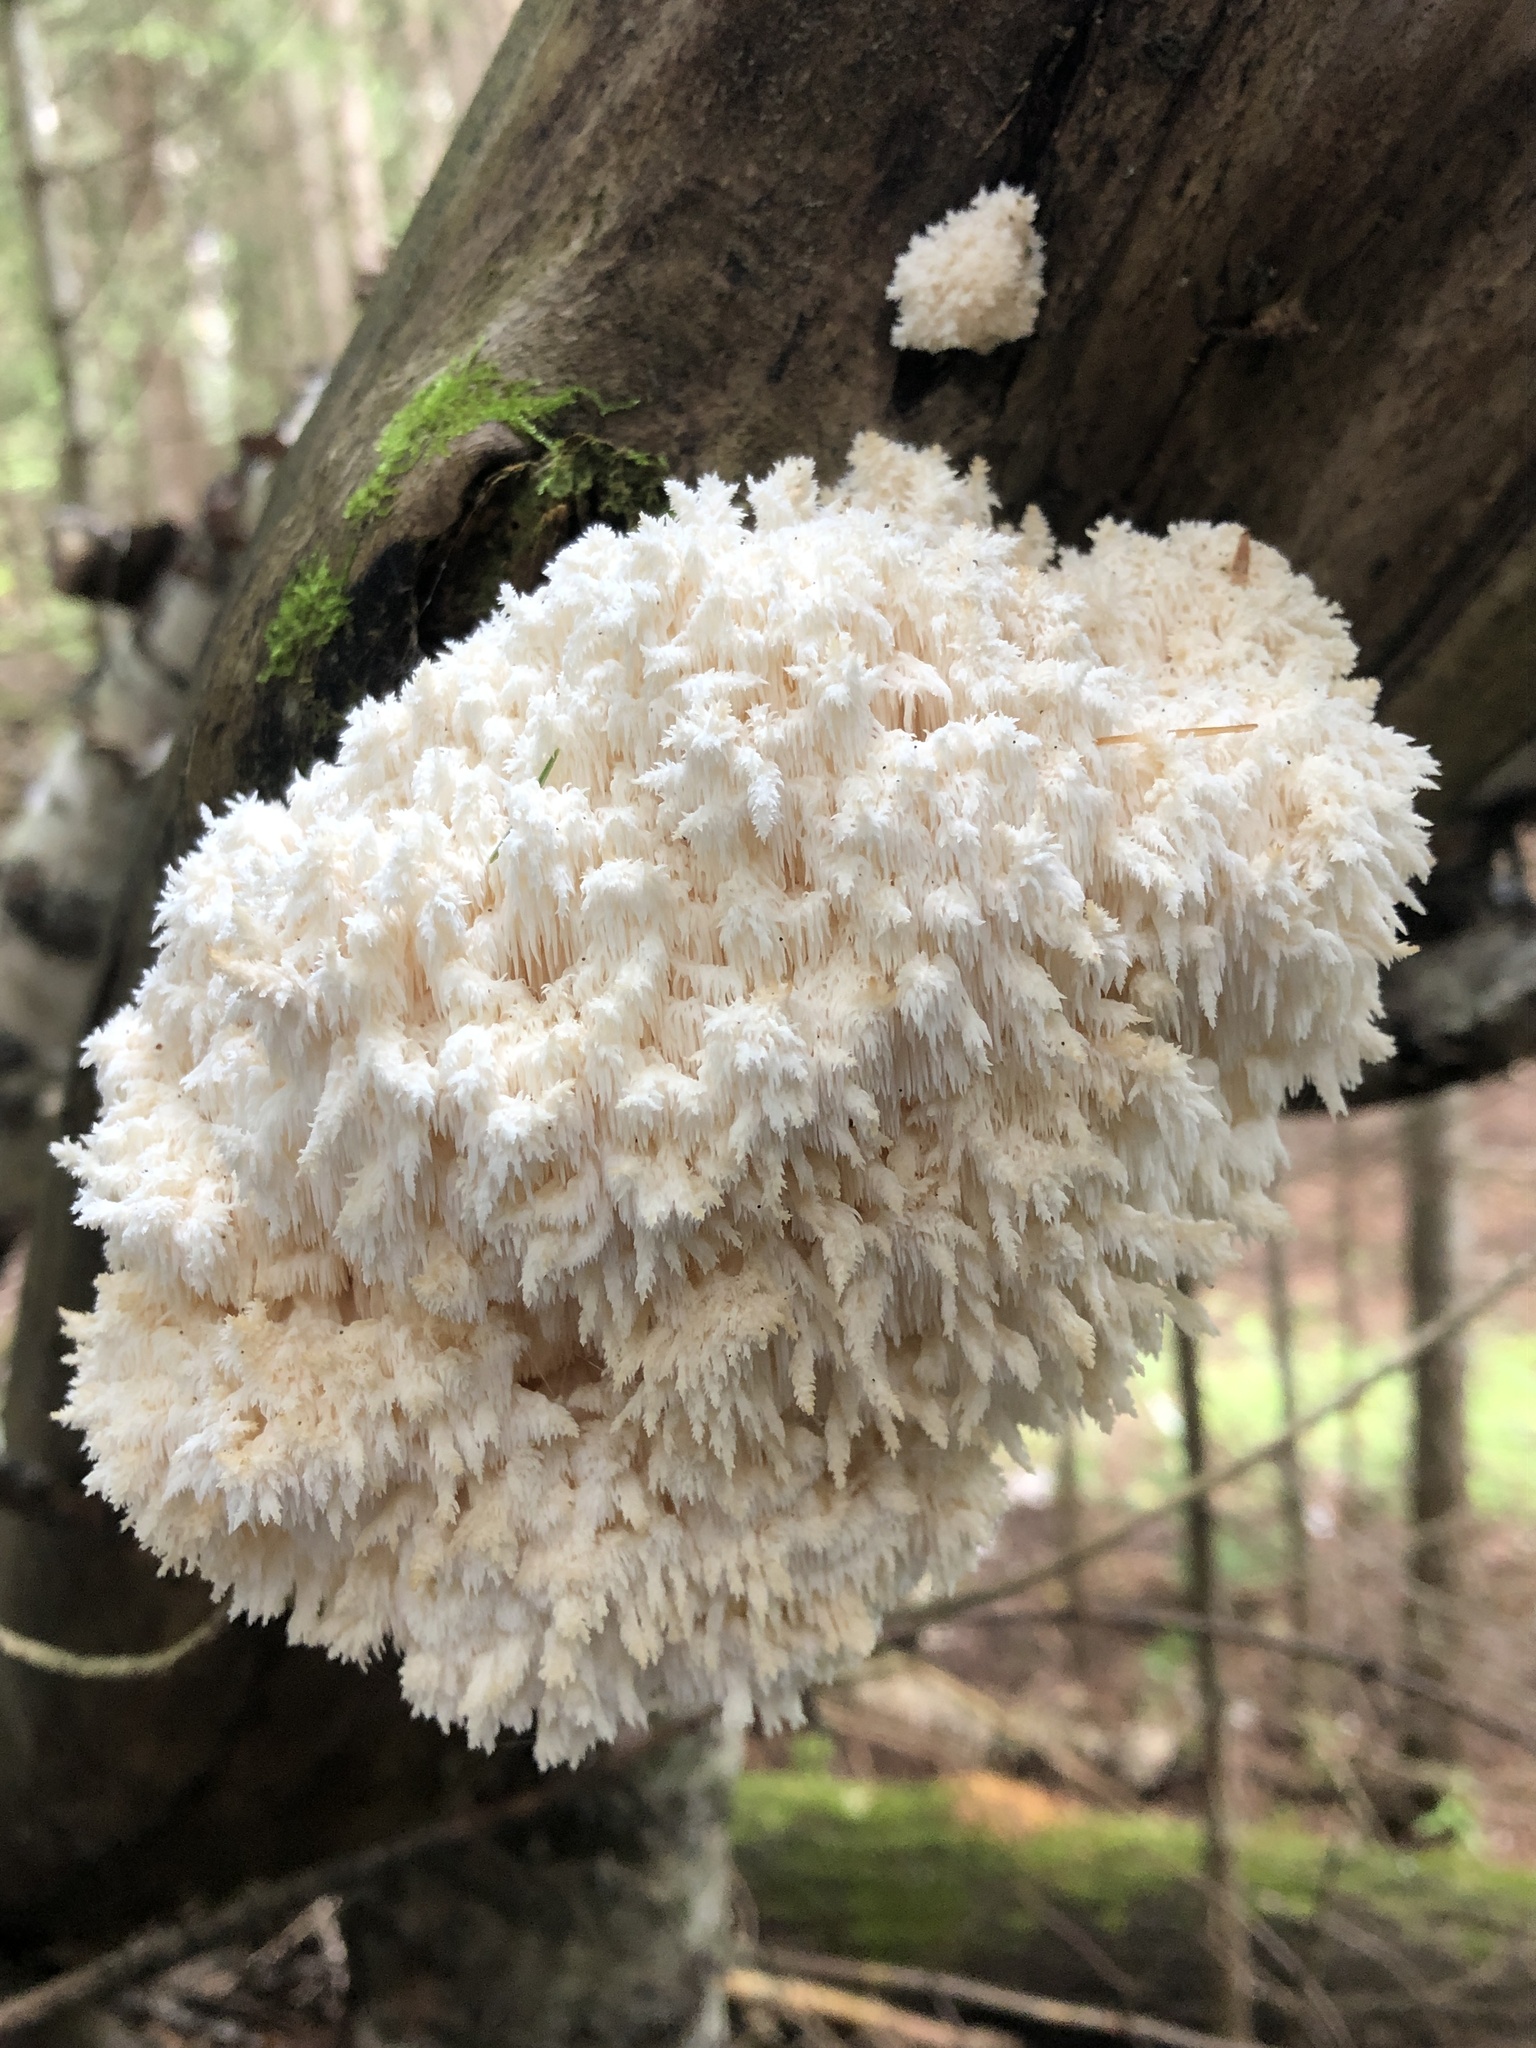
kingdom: Fungi
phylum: Basidiomycota
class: Agaricomycetes
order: Russulales
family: Hericiaceae
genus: Hericium
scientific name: Hericium coralloides
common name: Coral tooth
